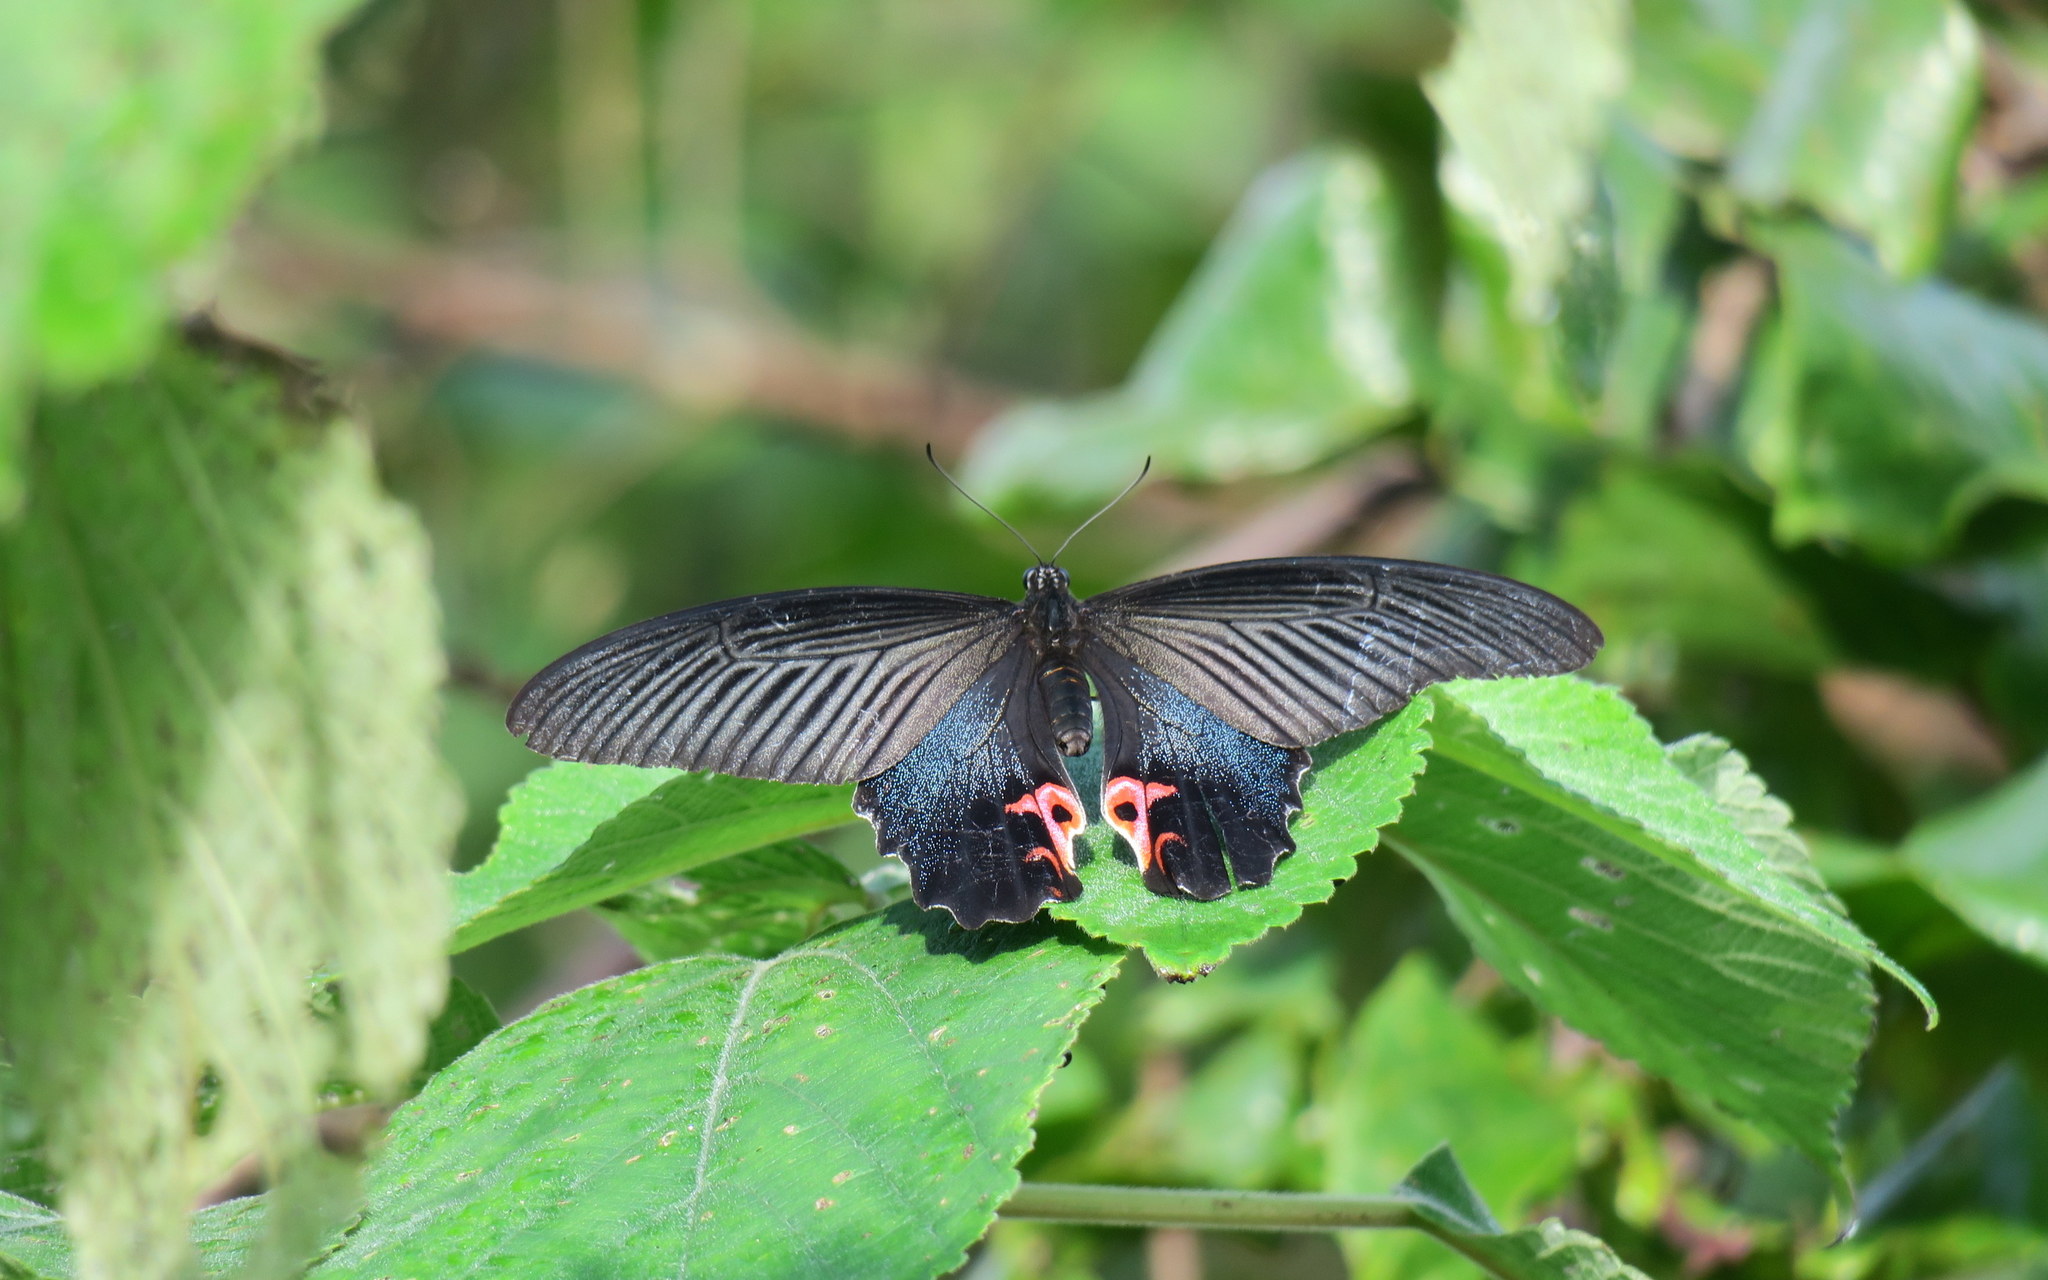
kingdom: Animalia
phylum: Arthropoda
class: Insecta
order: Lepidoptera
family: Papilionidae
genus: Papilio
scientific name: Papilio protenor
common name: Spangle
